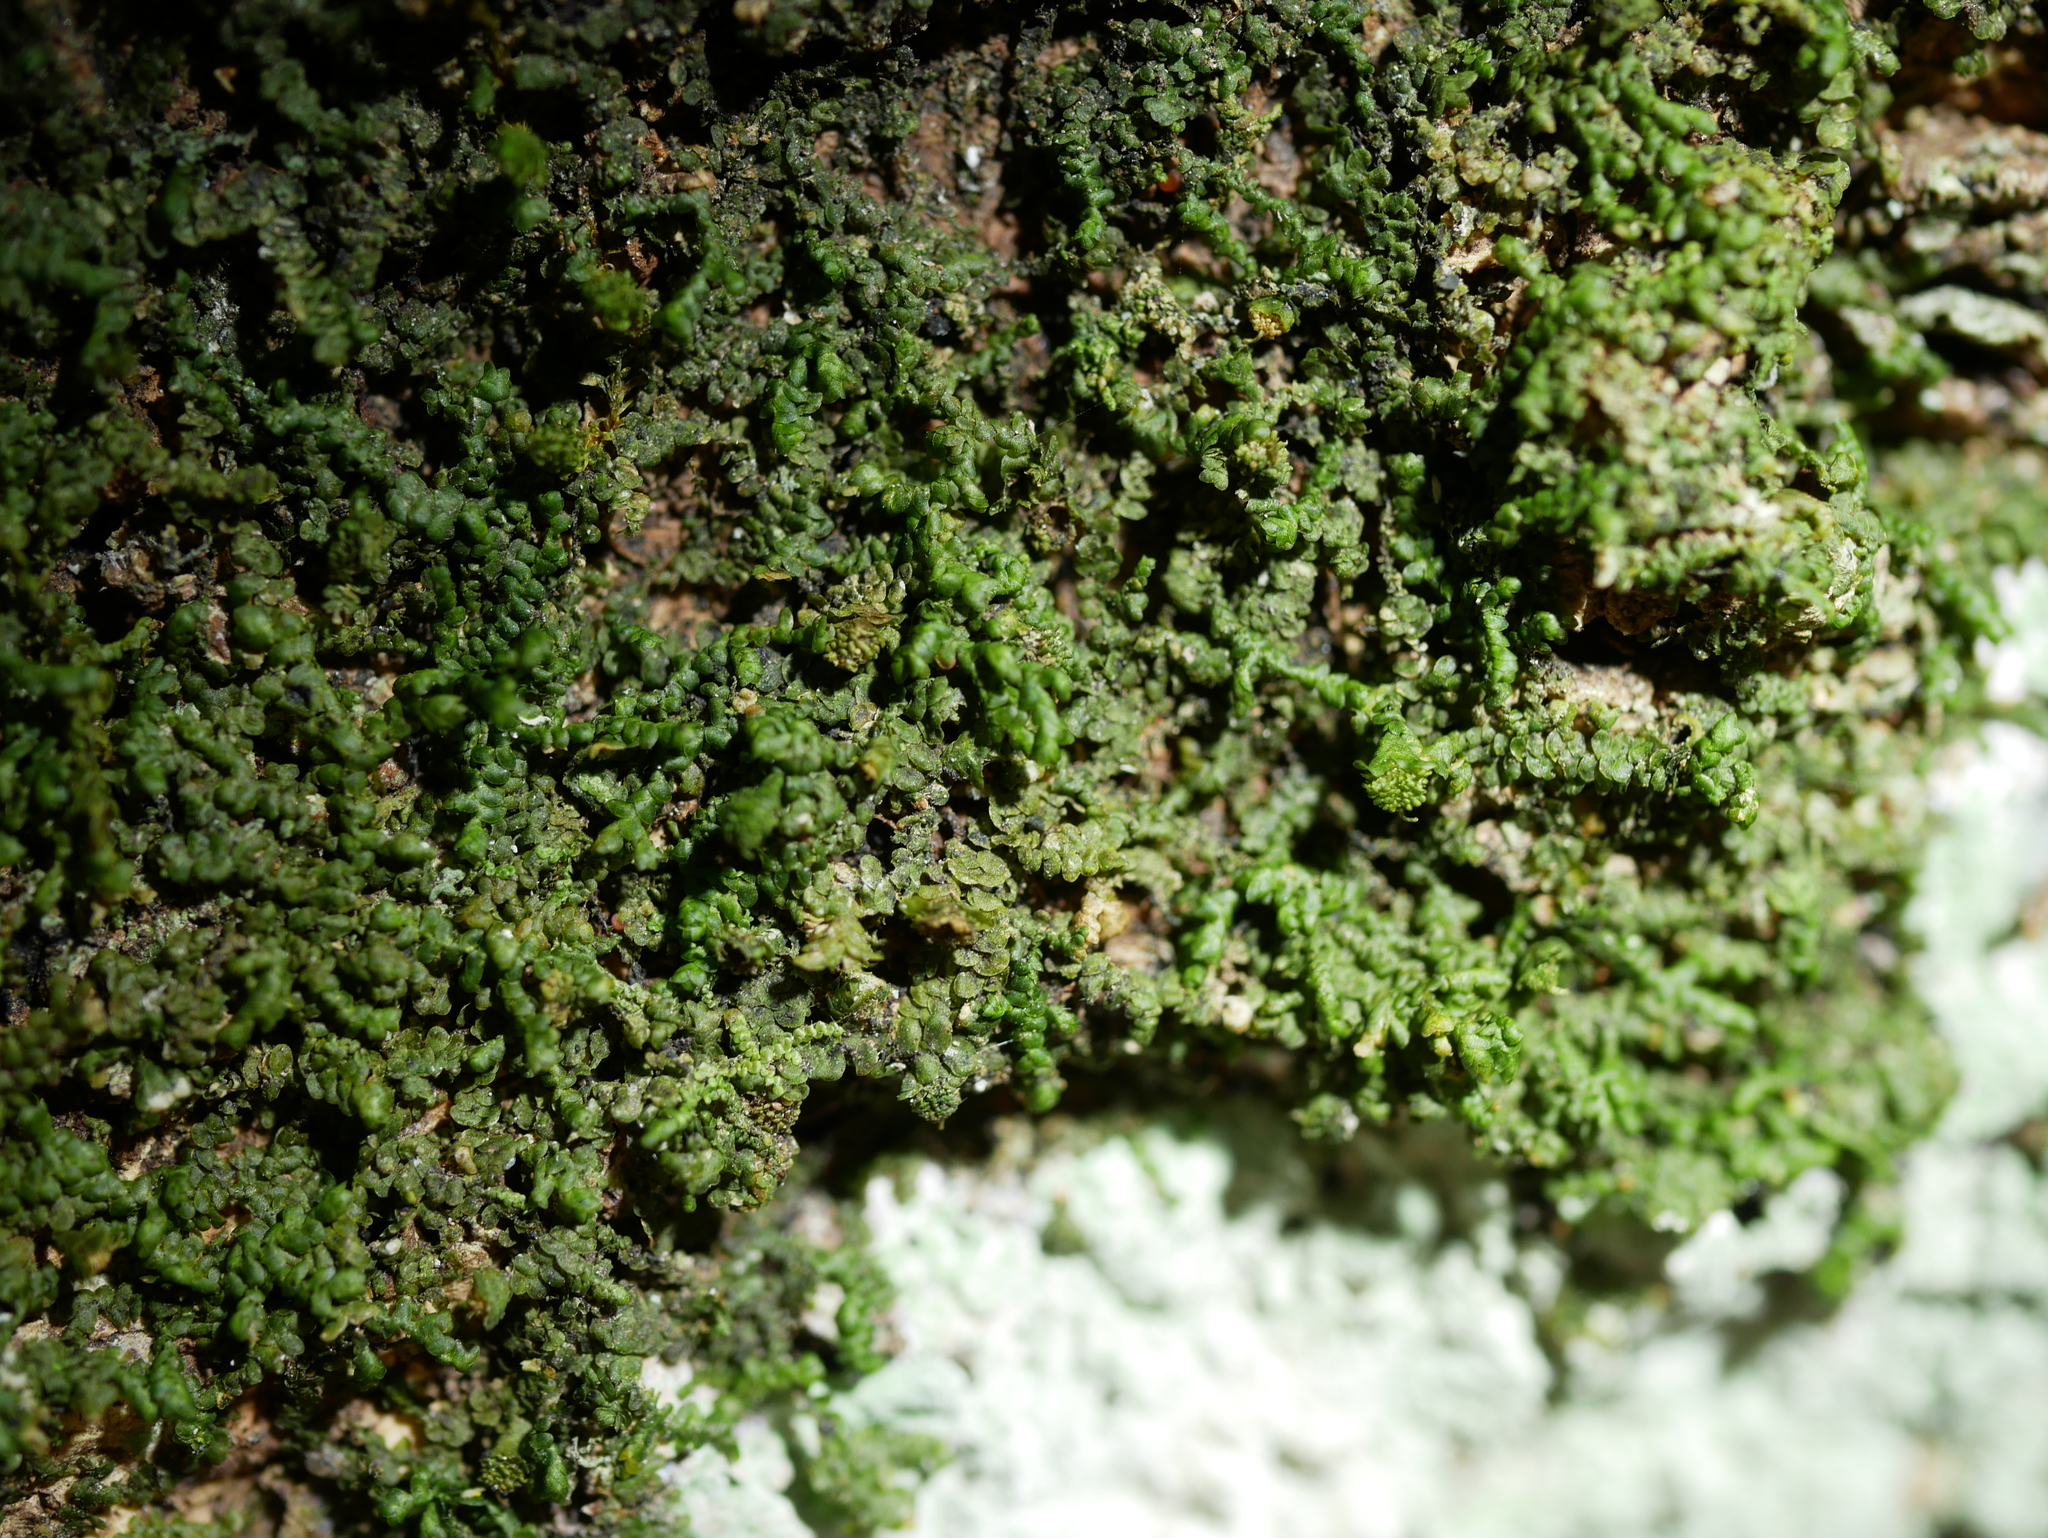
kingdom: Plantae
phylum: Marchantiophyta
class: Jungermanniopsida
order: Porellales
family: Frullaniaceae
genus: Frullania
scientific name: Frullania nicholsonii
